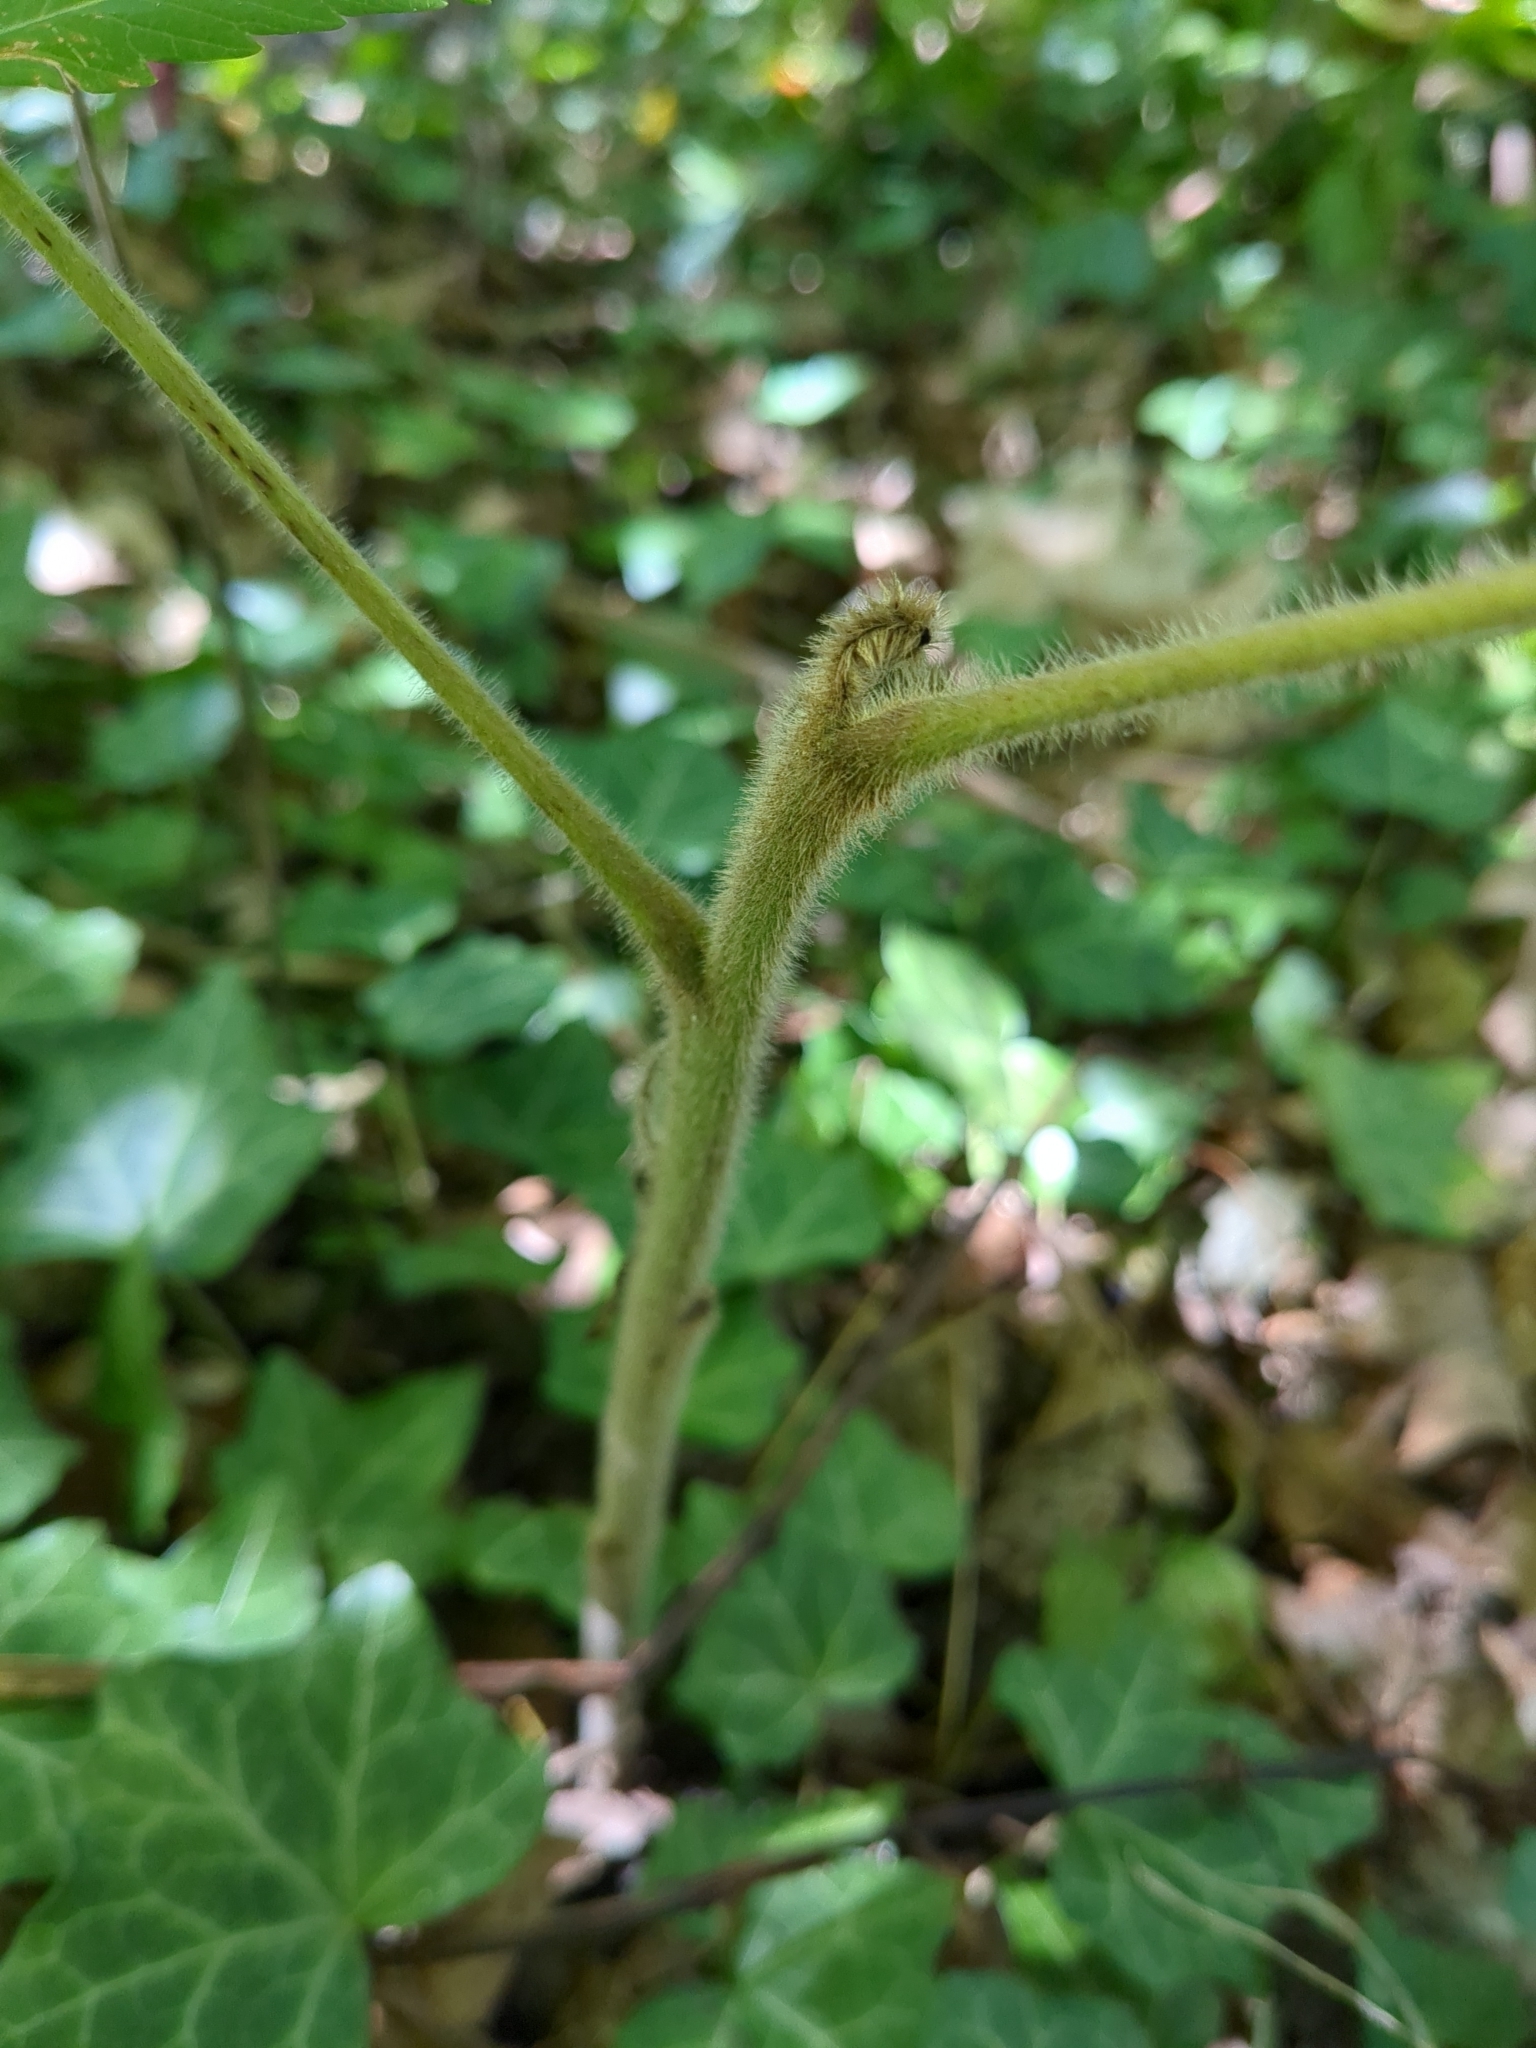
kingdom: Plantae
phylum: Tracheophyta
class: Magnoliopsida
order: Sapindales
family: Anacardiaceae
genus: Rhus
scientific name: Rhus typhina
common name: Staghorn sumac
